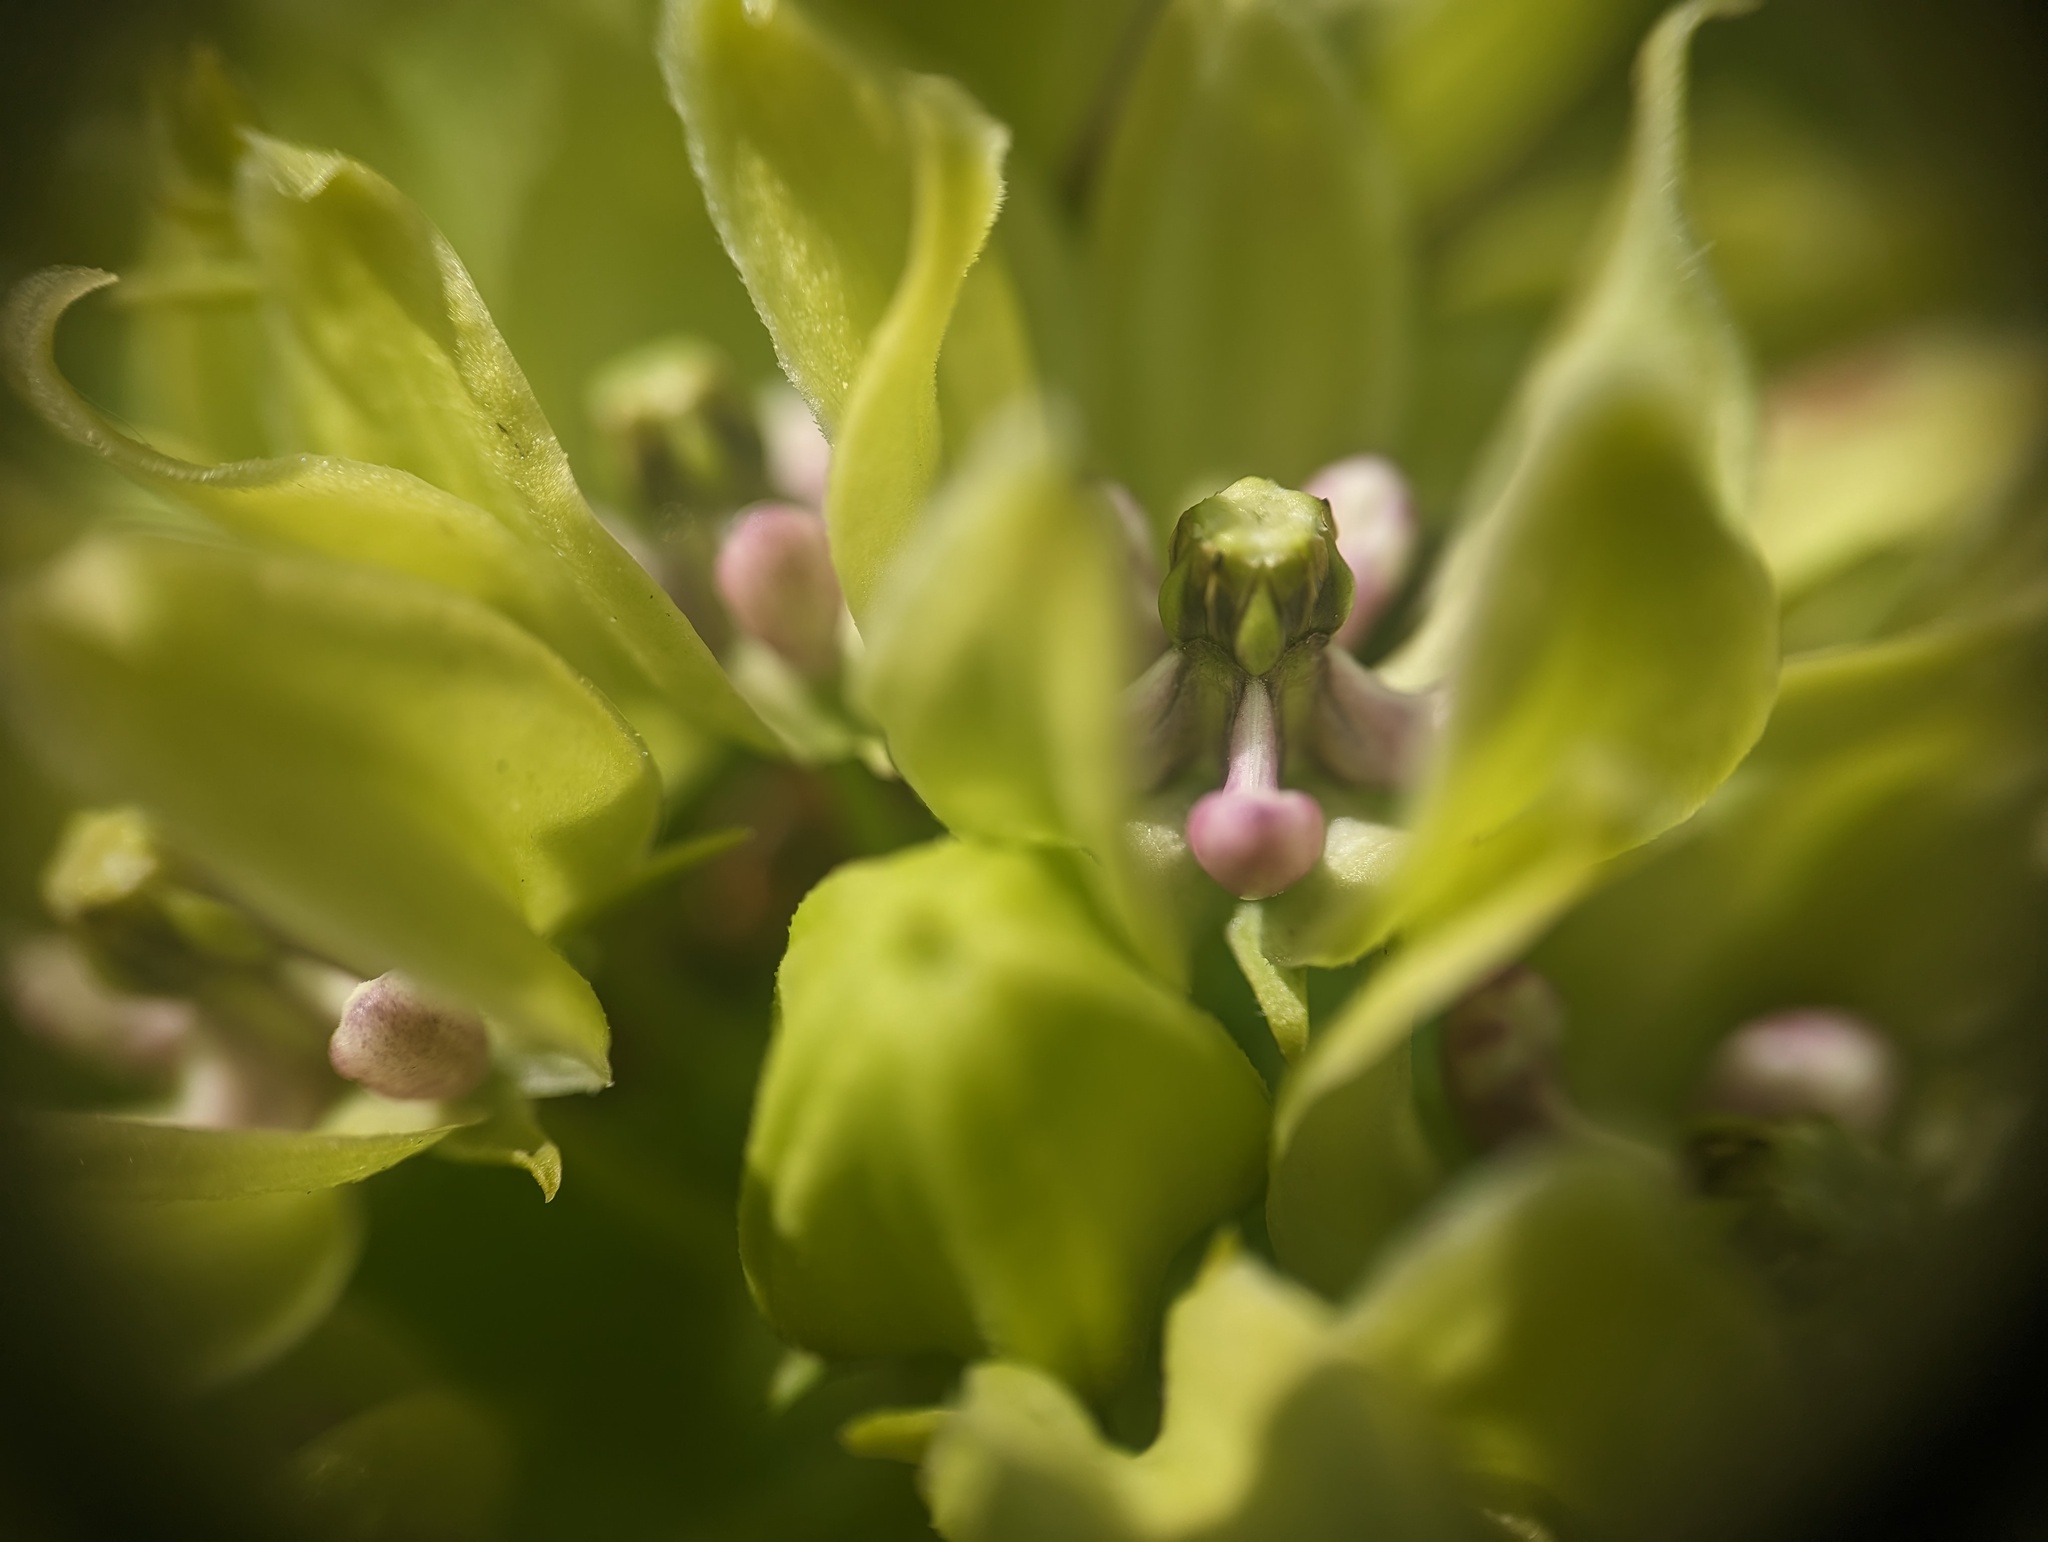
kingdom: Plantae
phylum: Tracheophyta
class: Magnoliopsida
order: Gentianales
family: Apocynaceae
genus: Asclepias
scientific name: Asclepias viridis
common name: Antelope-horns
